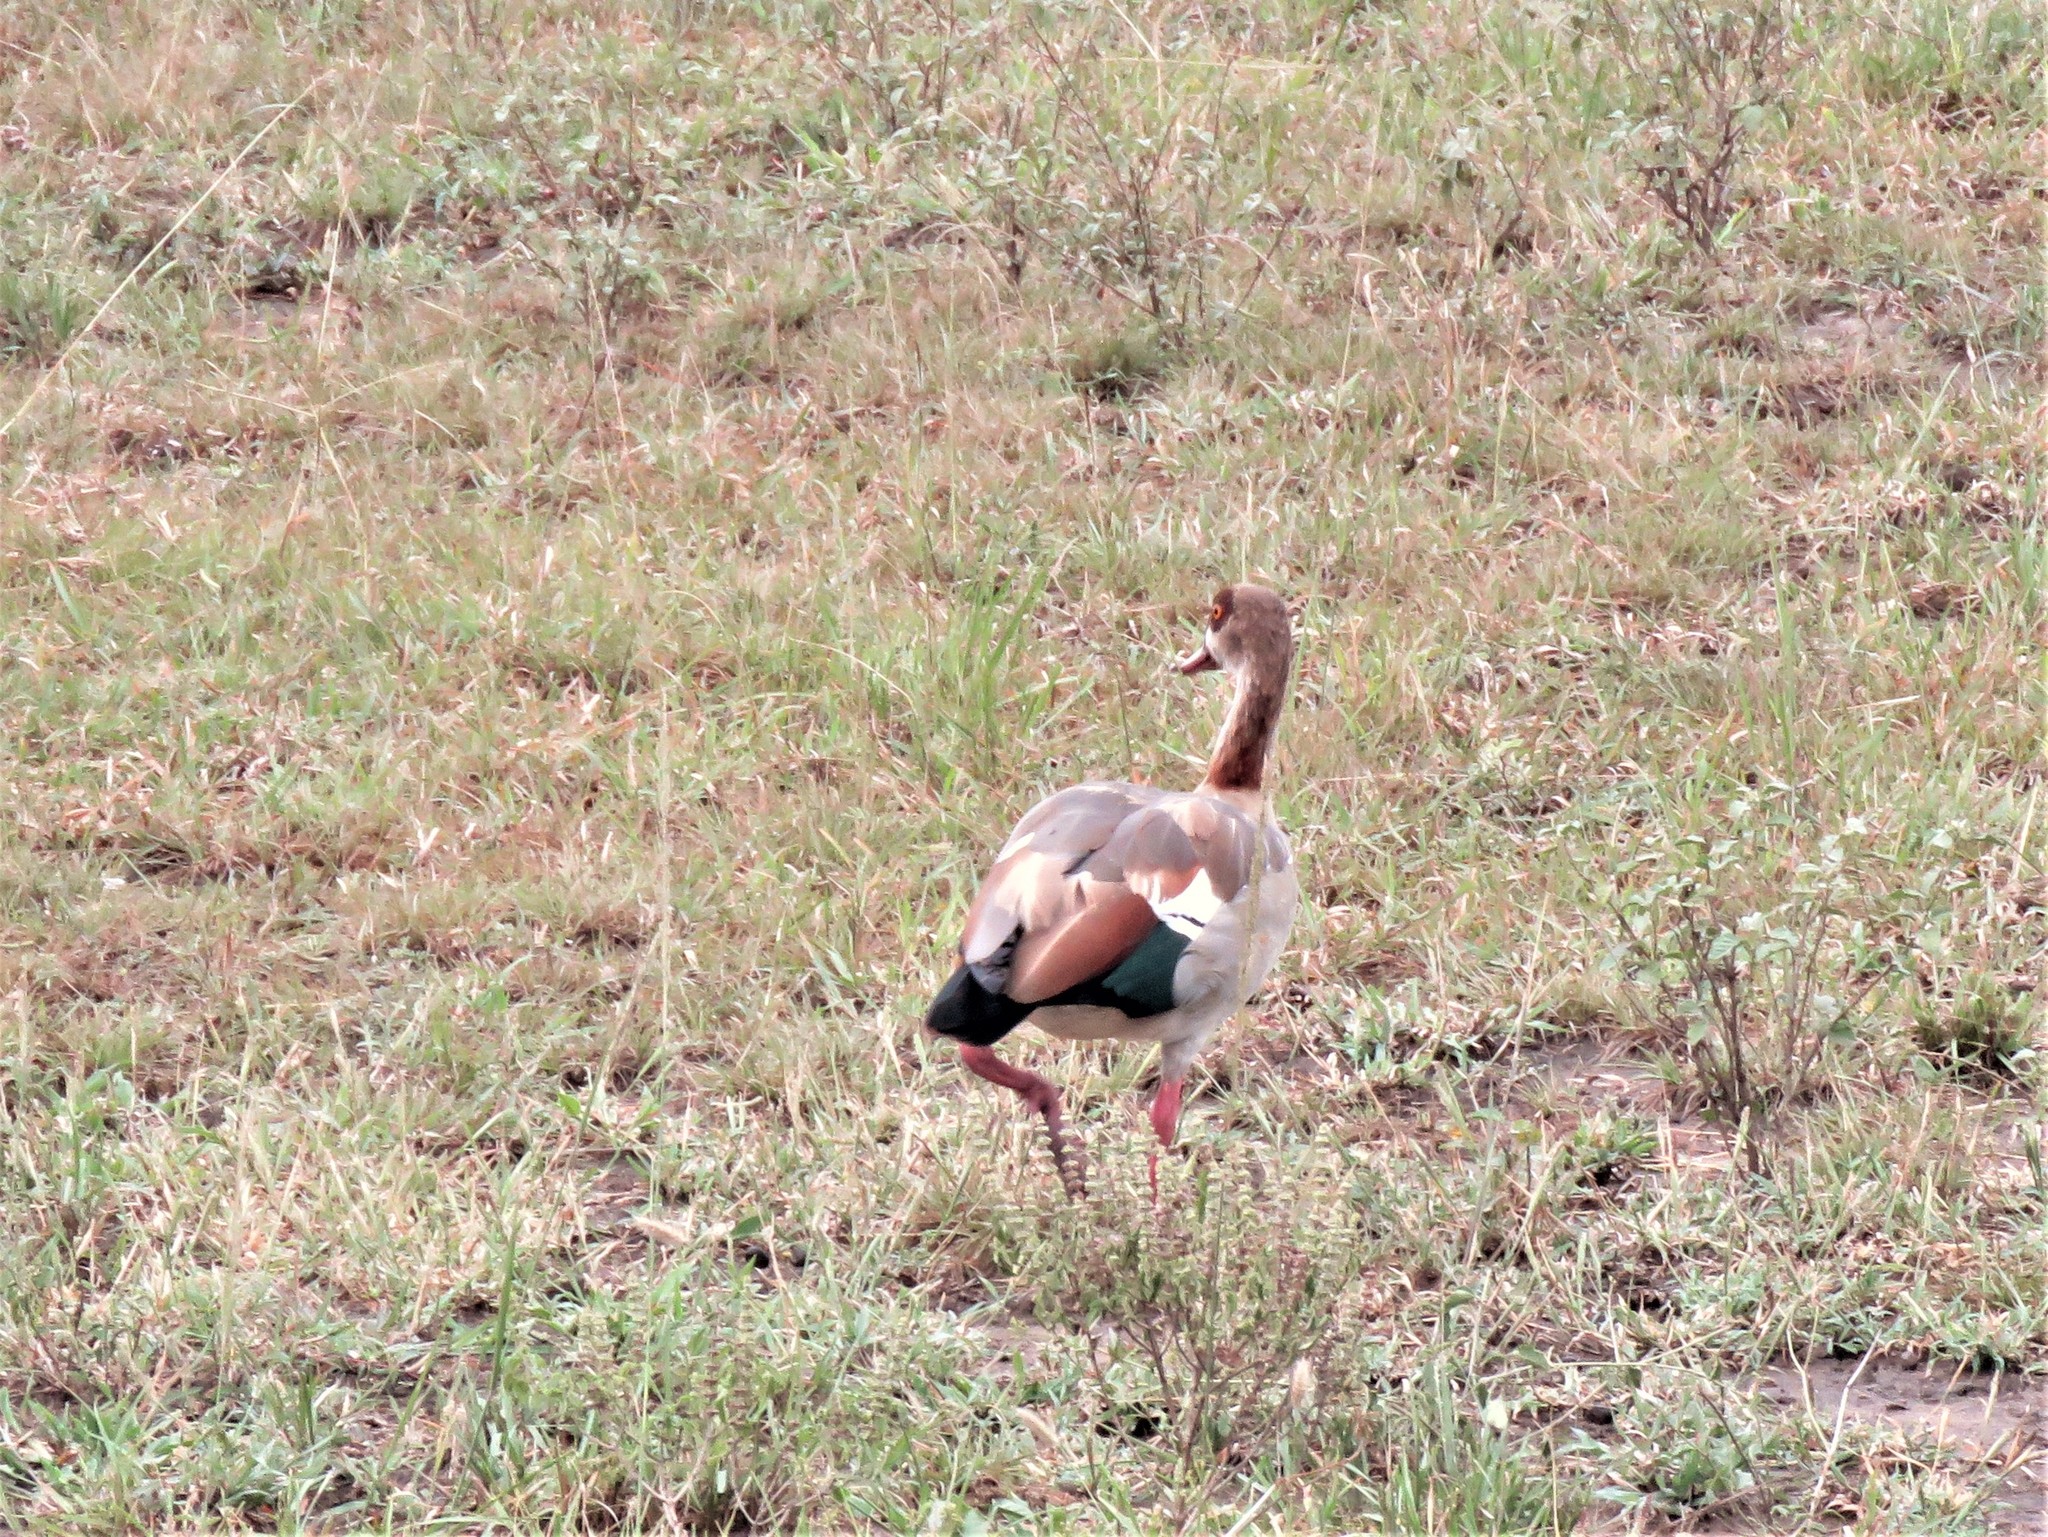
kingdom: Animalia
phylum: Chordata
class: Aves
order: Anseriformes
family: Anatidae
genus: Alopochen
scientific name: Alopochen aegyptiaca
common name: Egyptian goose
